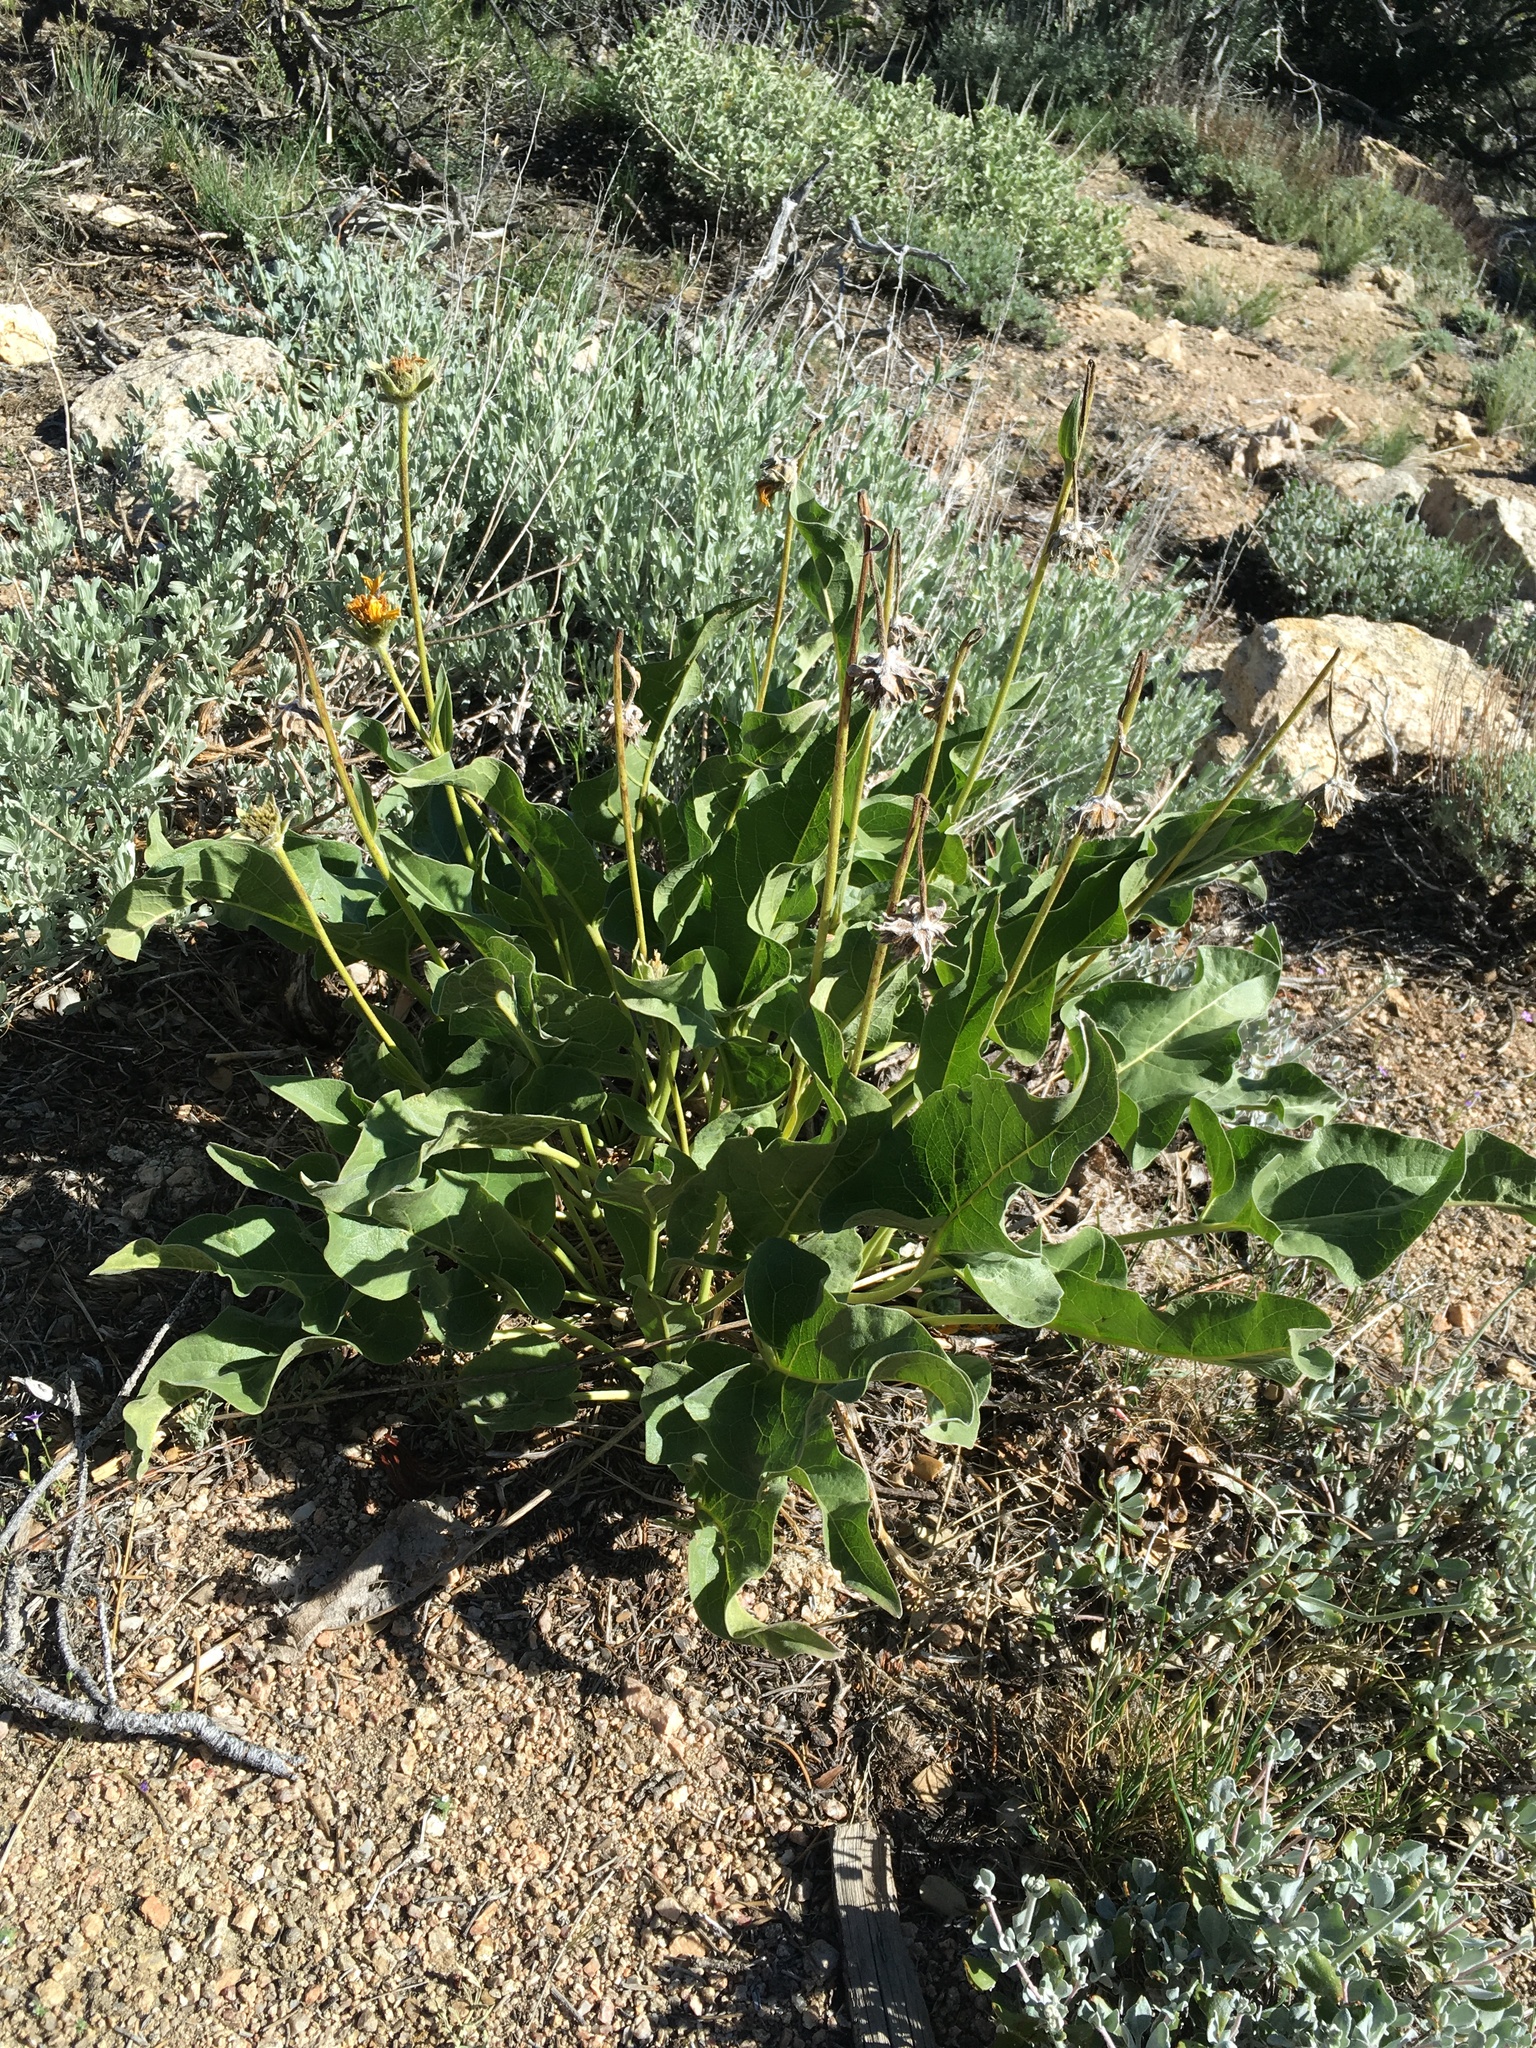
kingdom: Plantae
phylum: Tracheophyta
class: Magnoliopsida
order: Asterales
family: Asteraceae
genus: Wyethia
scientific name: Wyethia sagittata
